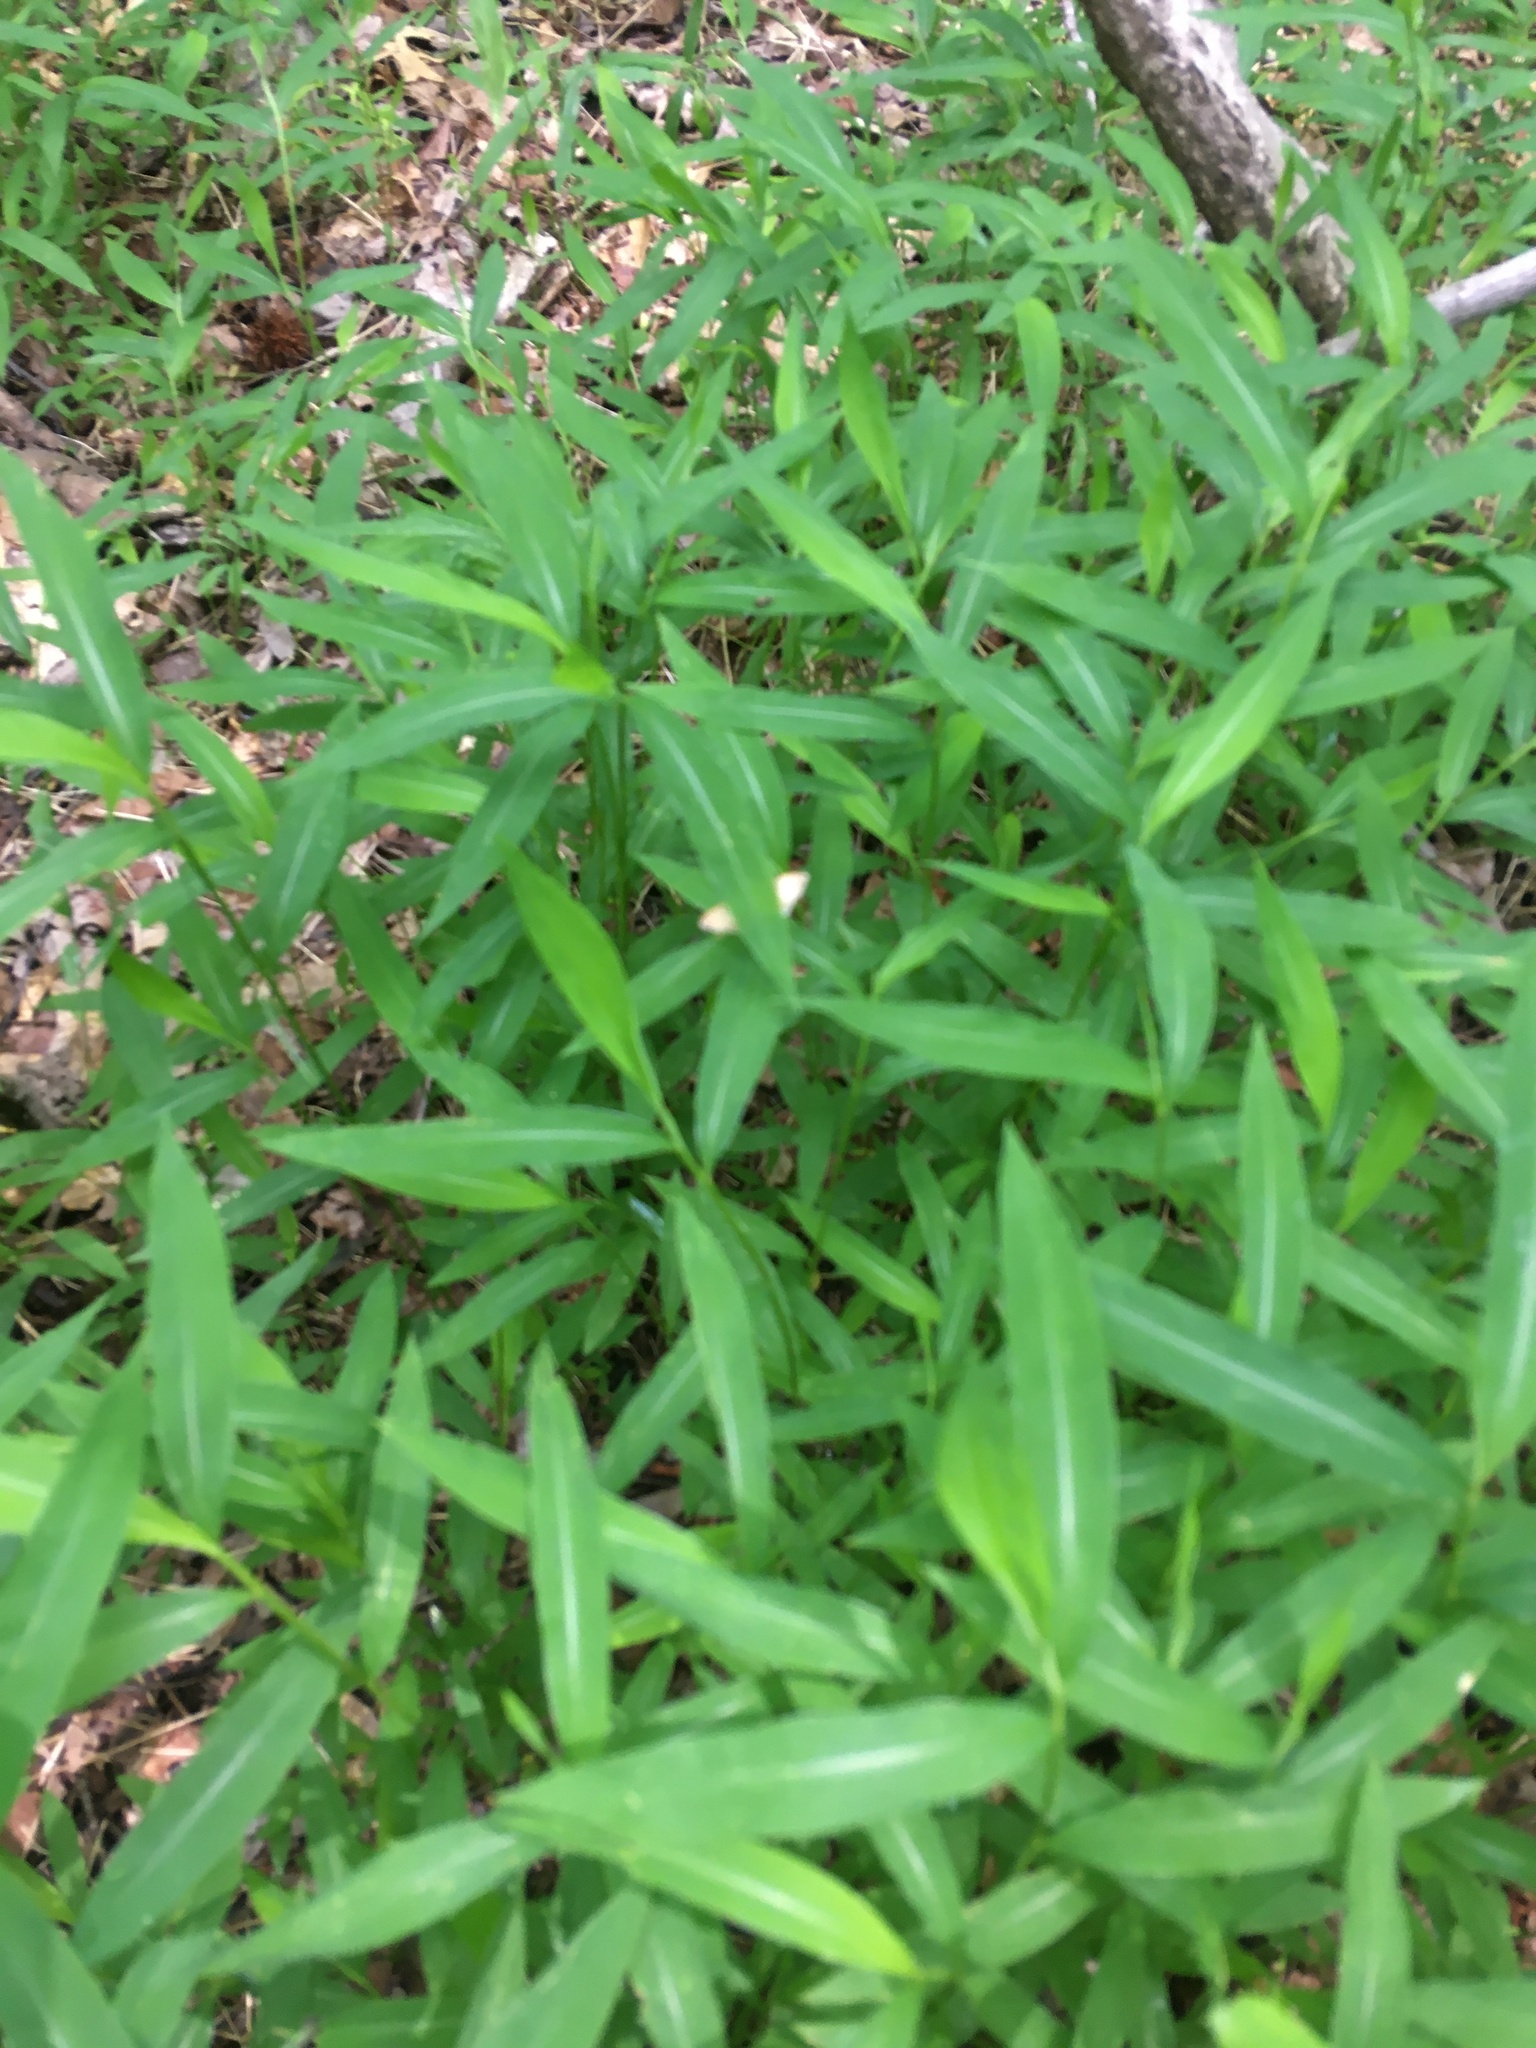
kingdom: Plantae
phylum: Tracheophyta
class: Liliopsida
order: Poales
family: Poaceae
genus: Microstegium
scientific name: Microstegium vimineum
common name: Japanese stiltgrass
